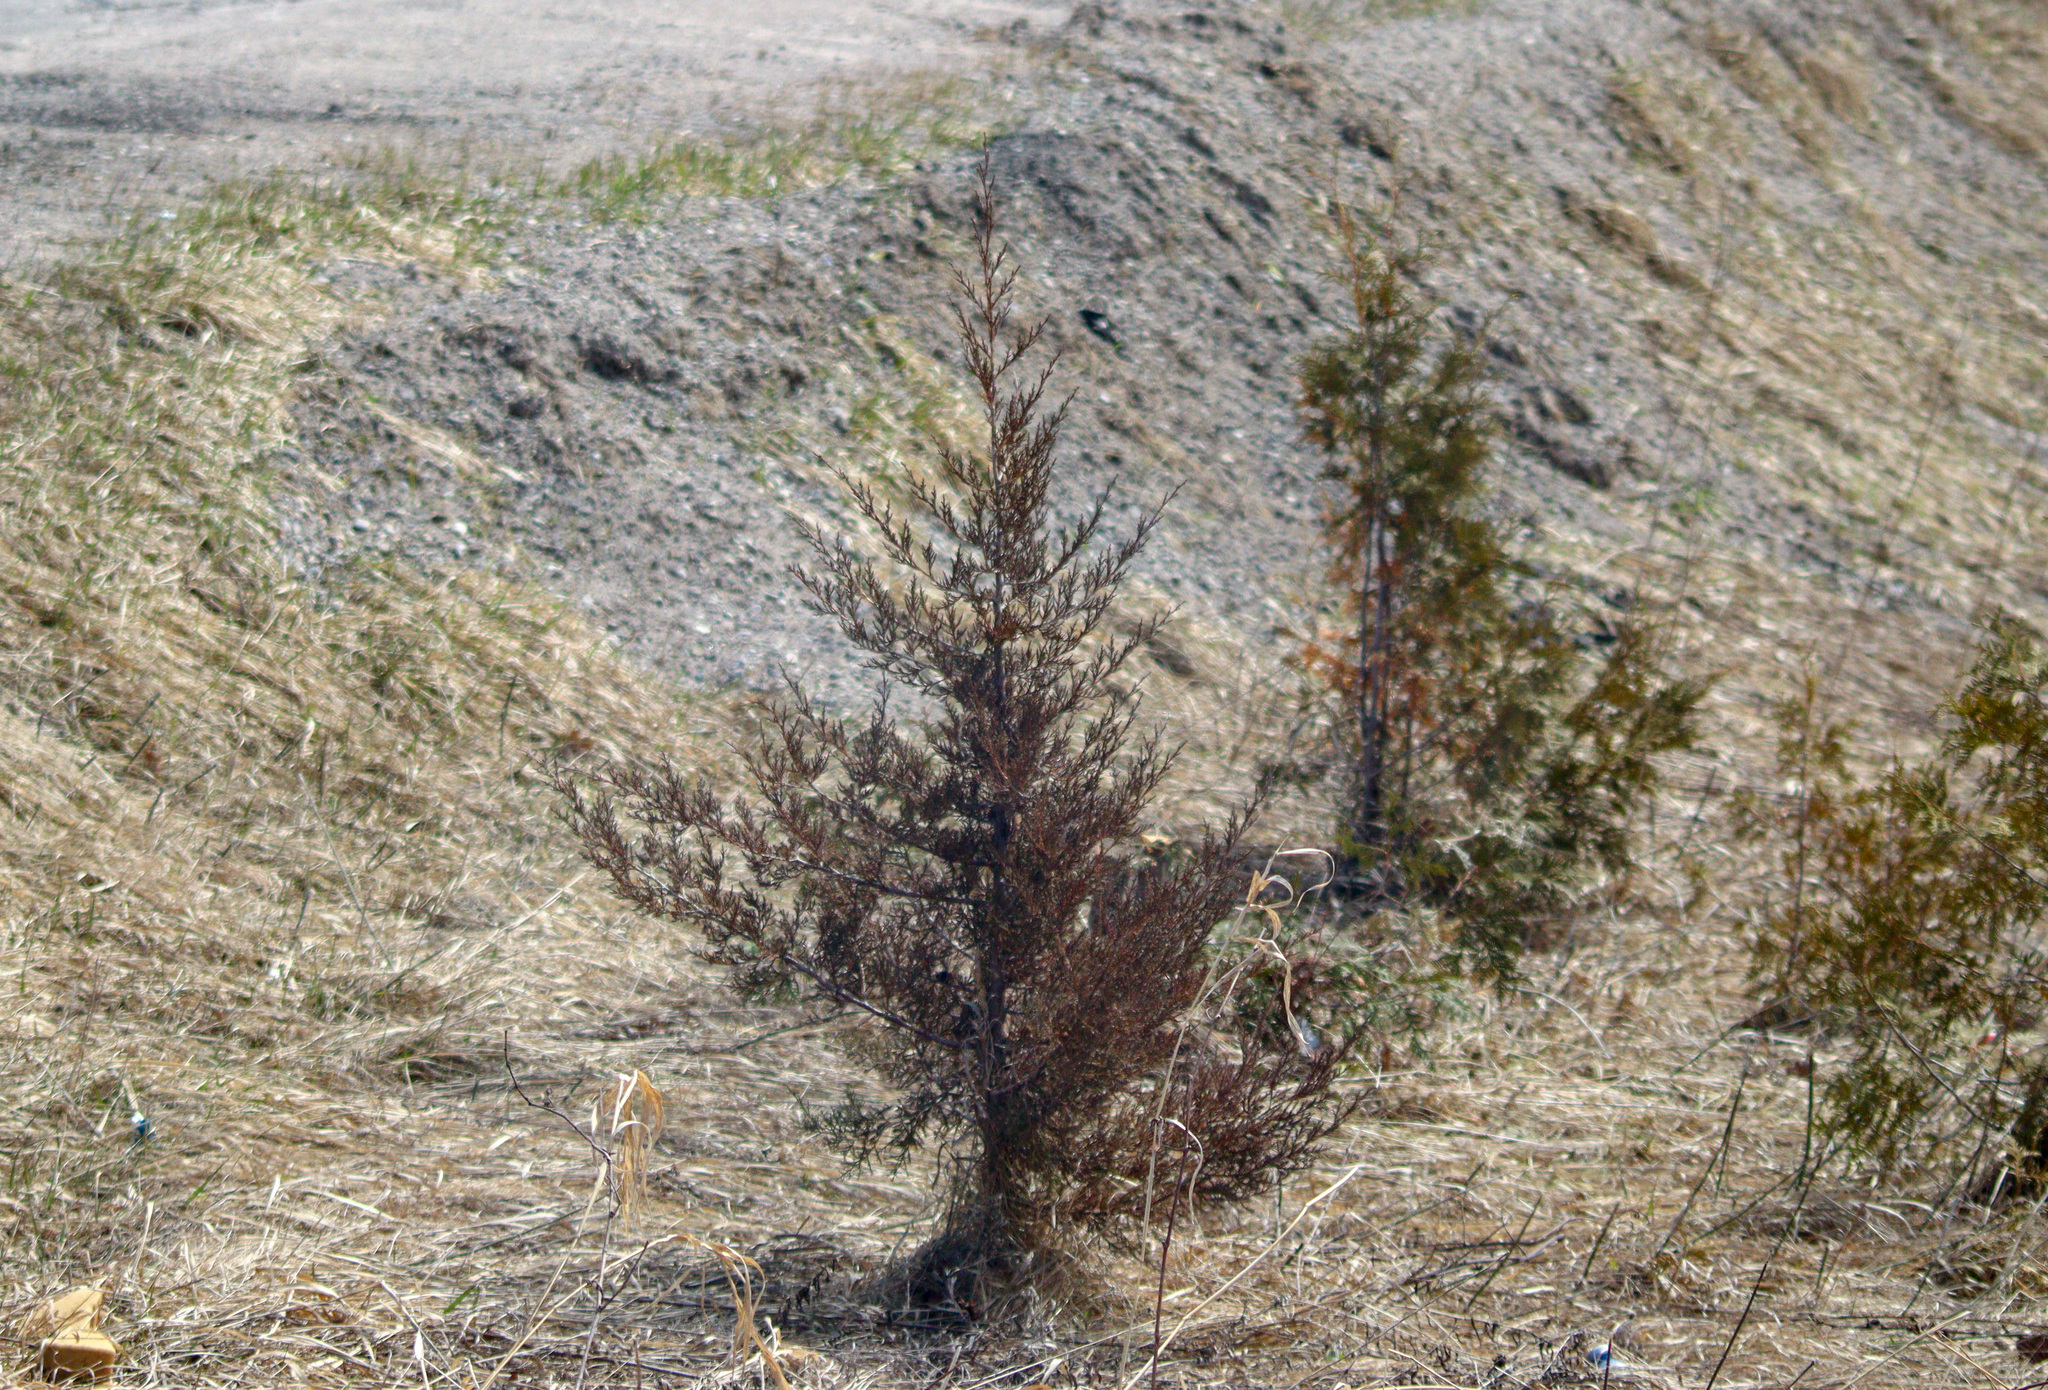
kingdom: Plantae
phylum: Tracheophyta
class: Pinopsida
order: Pinales
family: Cupressaceae
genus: Juniperus
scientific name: Juniperus virginiana
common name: Red juniper
